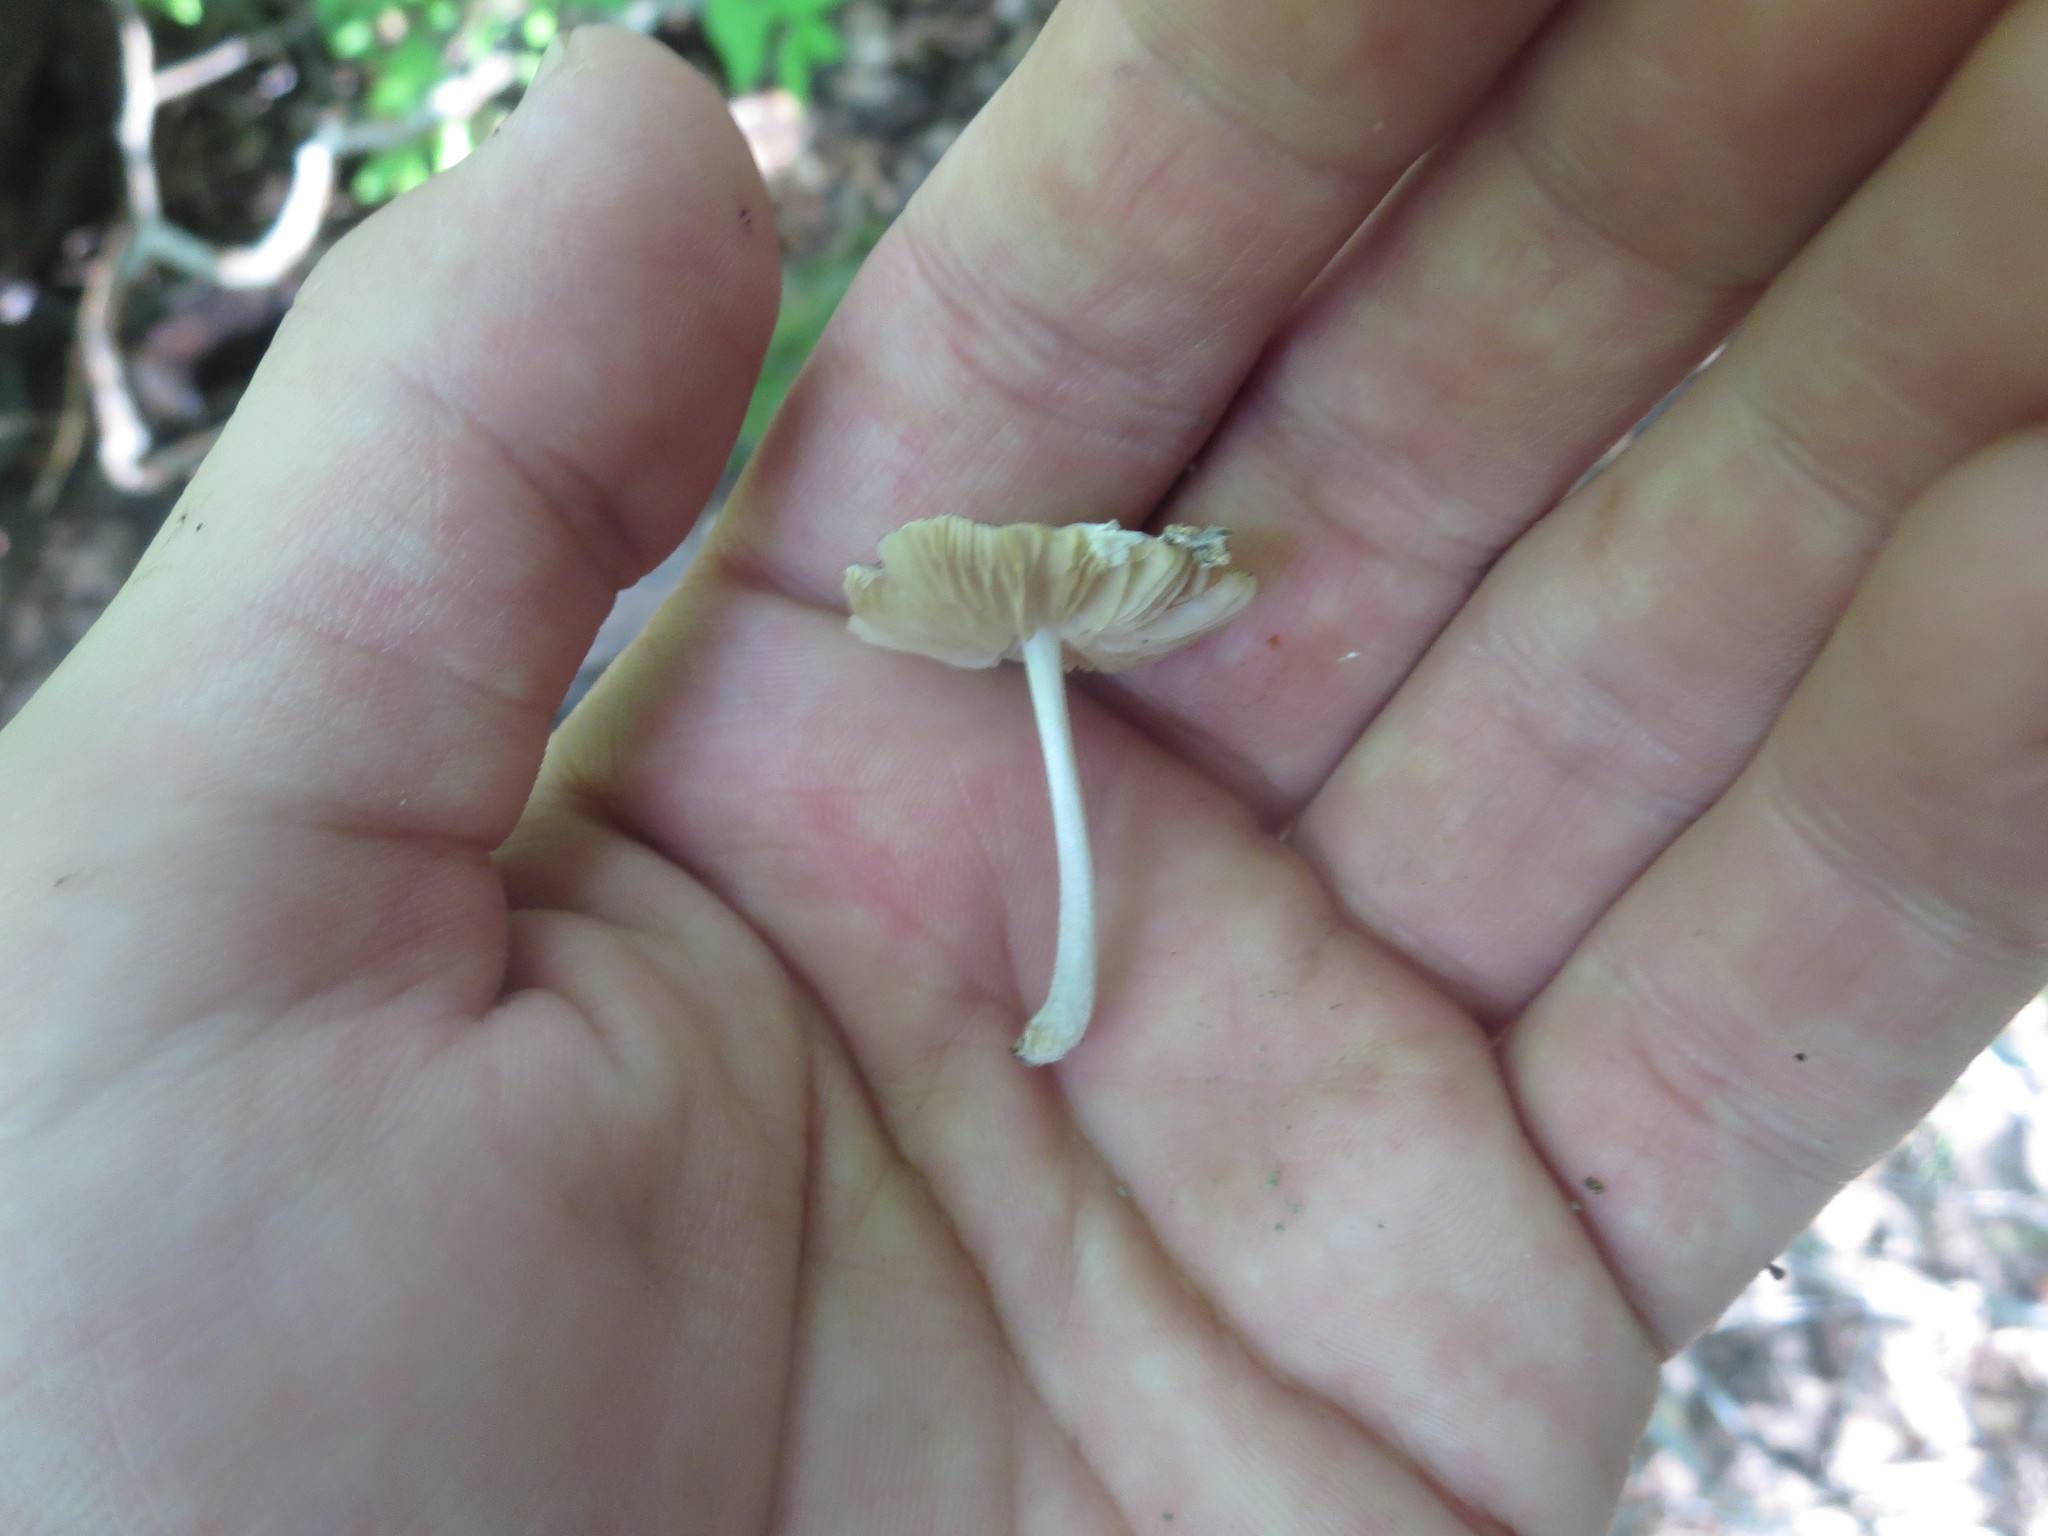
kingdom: Fungi
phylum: Basidiomycota
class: Agaricomycetes
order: Agaricales
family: Bolbitiaceae
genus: Bolbitius
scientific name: Bolbitius reticulatus
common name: Netted fieldcap
